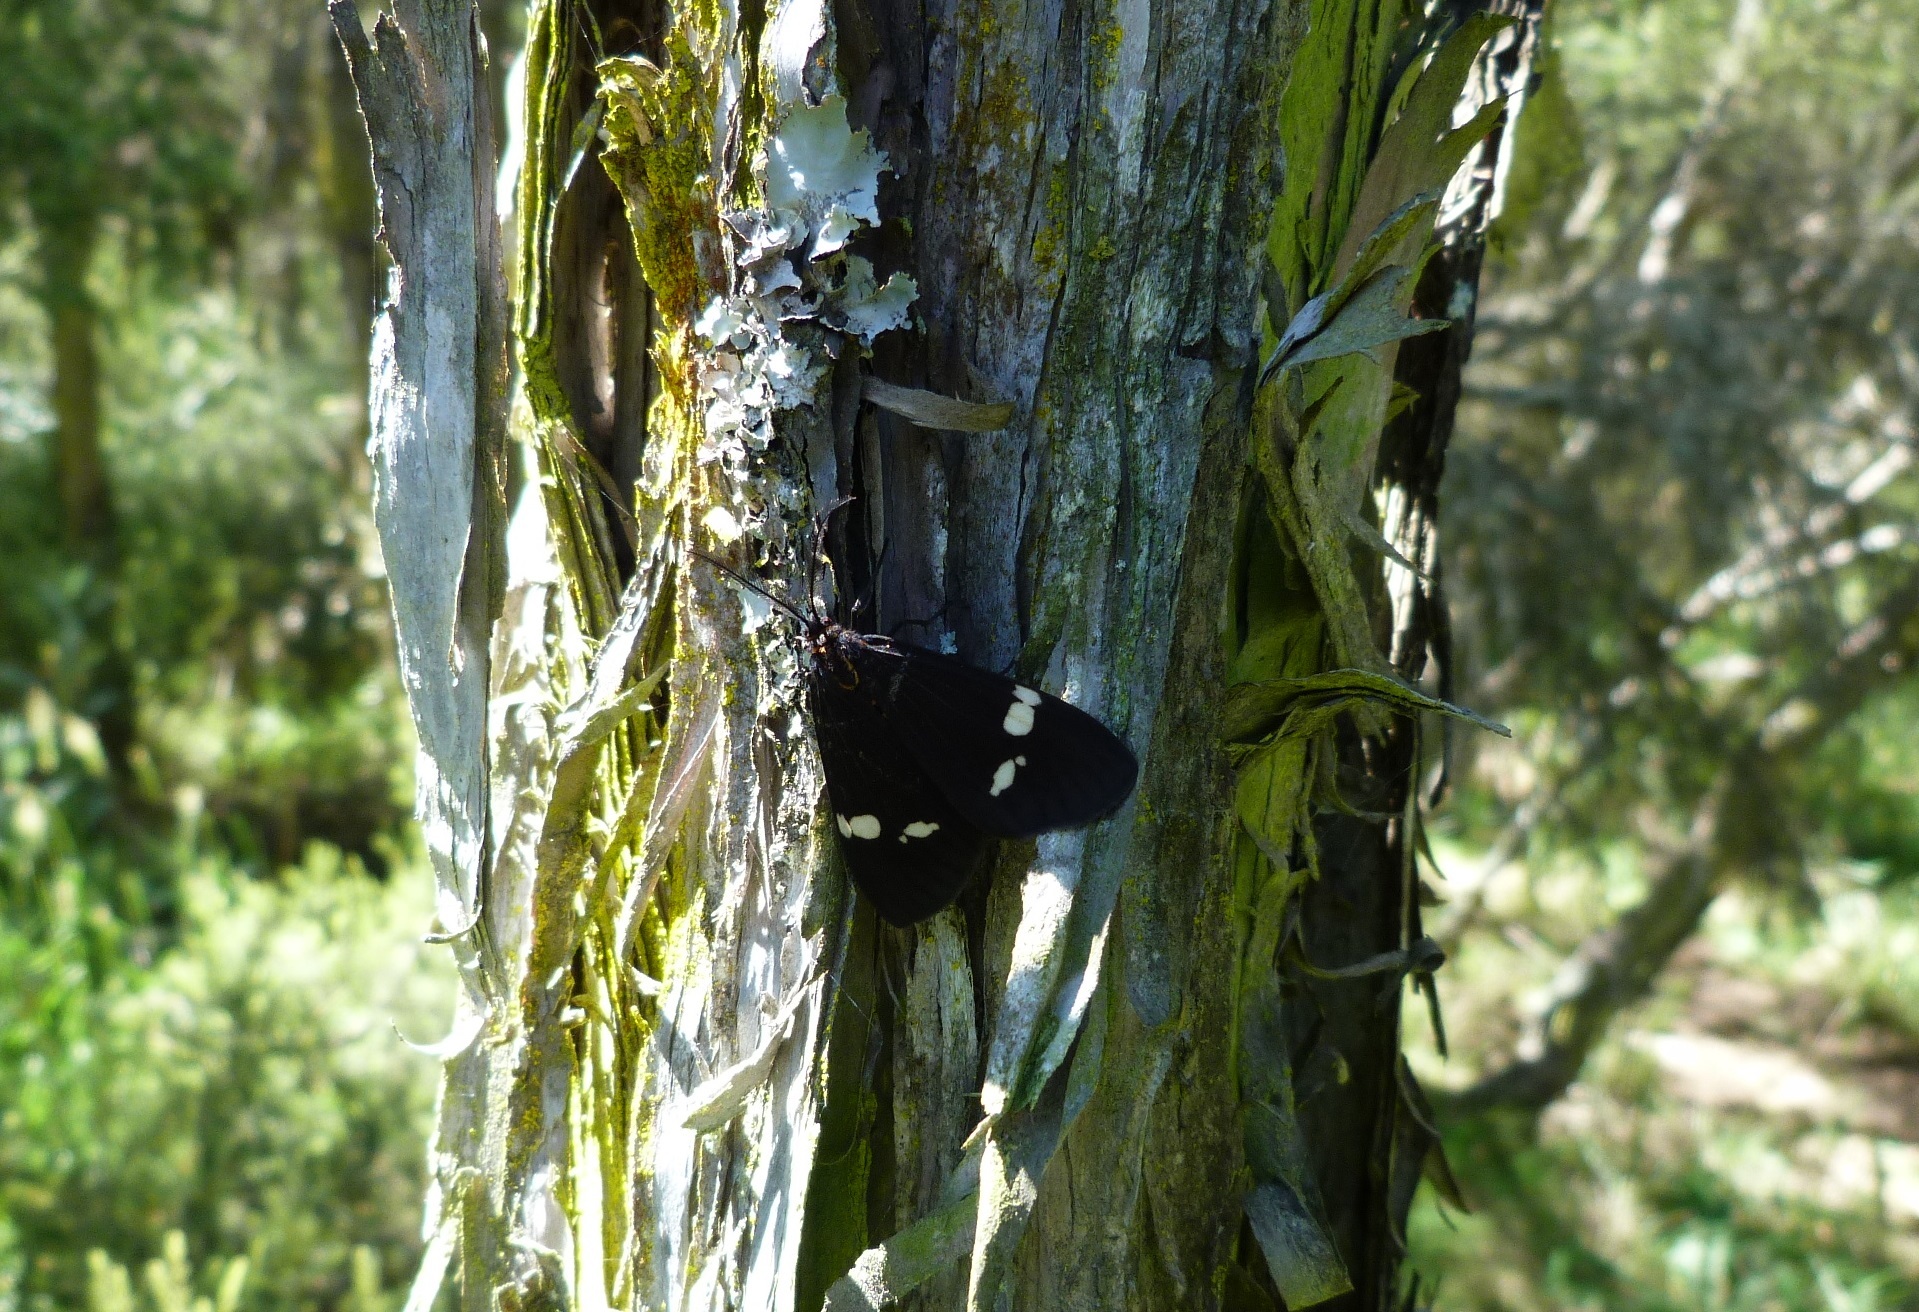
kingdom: Animalia
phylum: Arthropoda
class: Insecta
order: Lepidoptera
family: Erebidae
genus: Nyctemera
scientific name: Nyctemera annulatum
